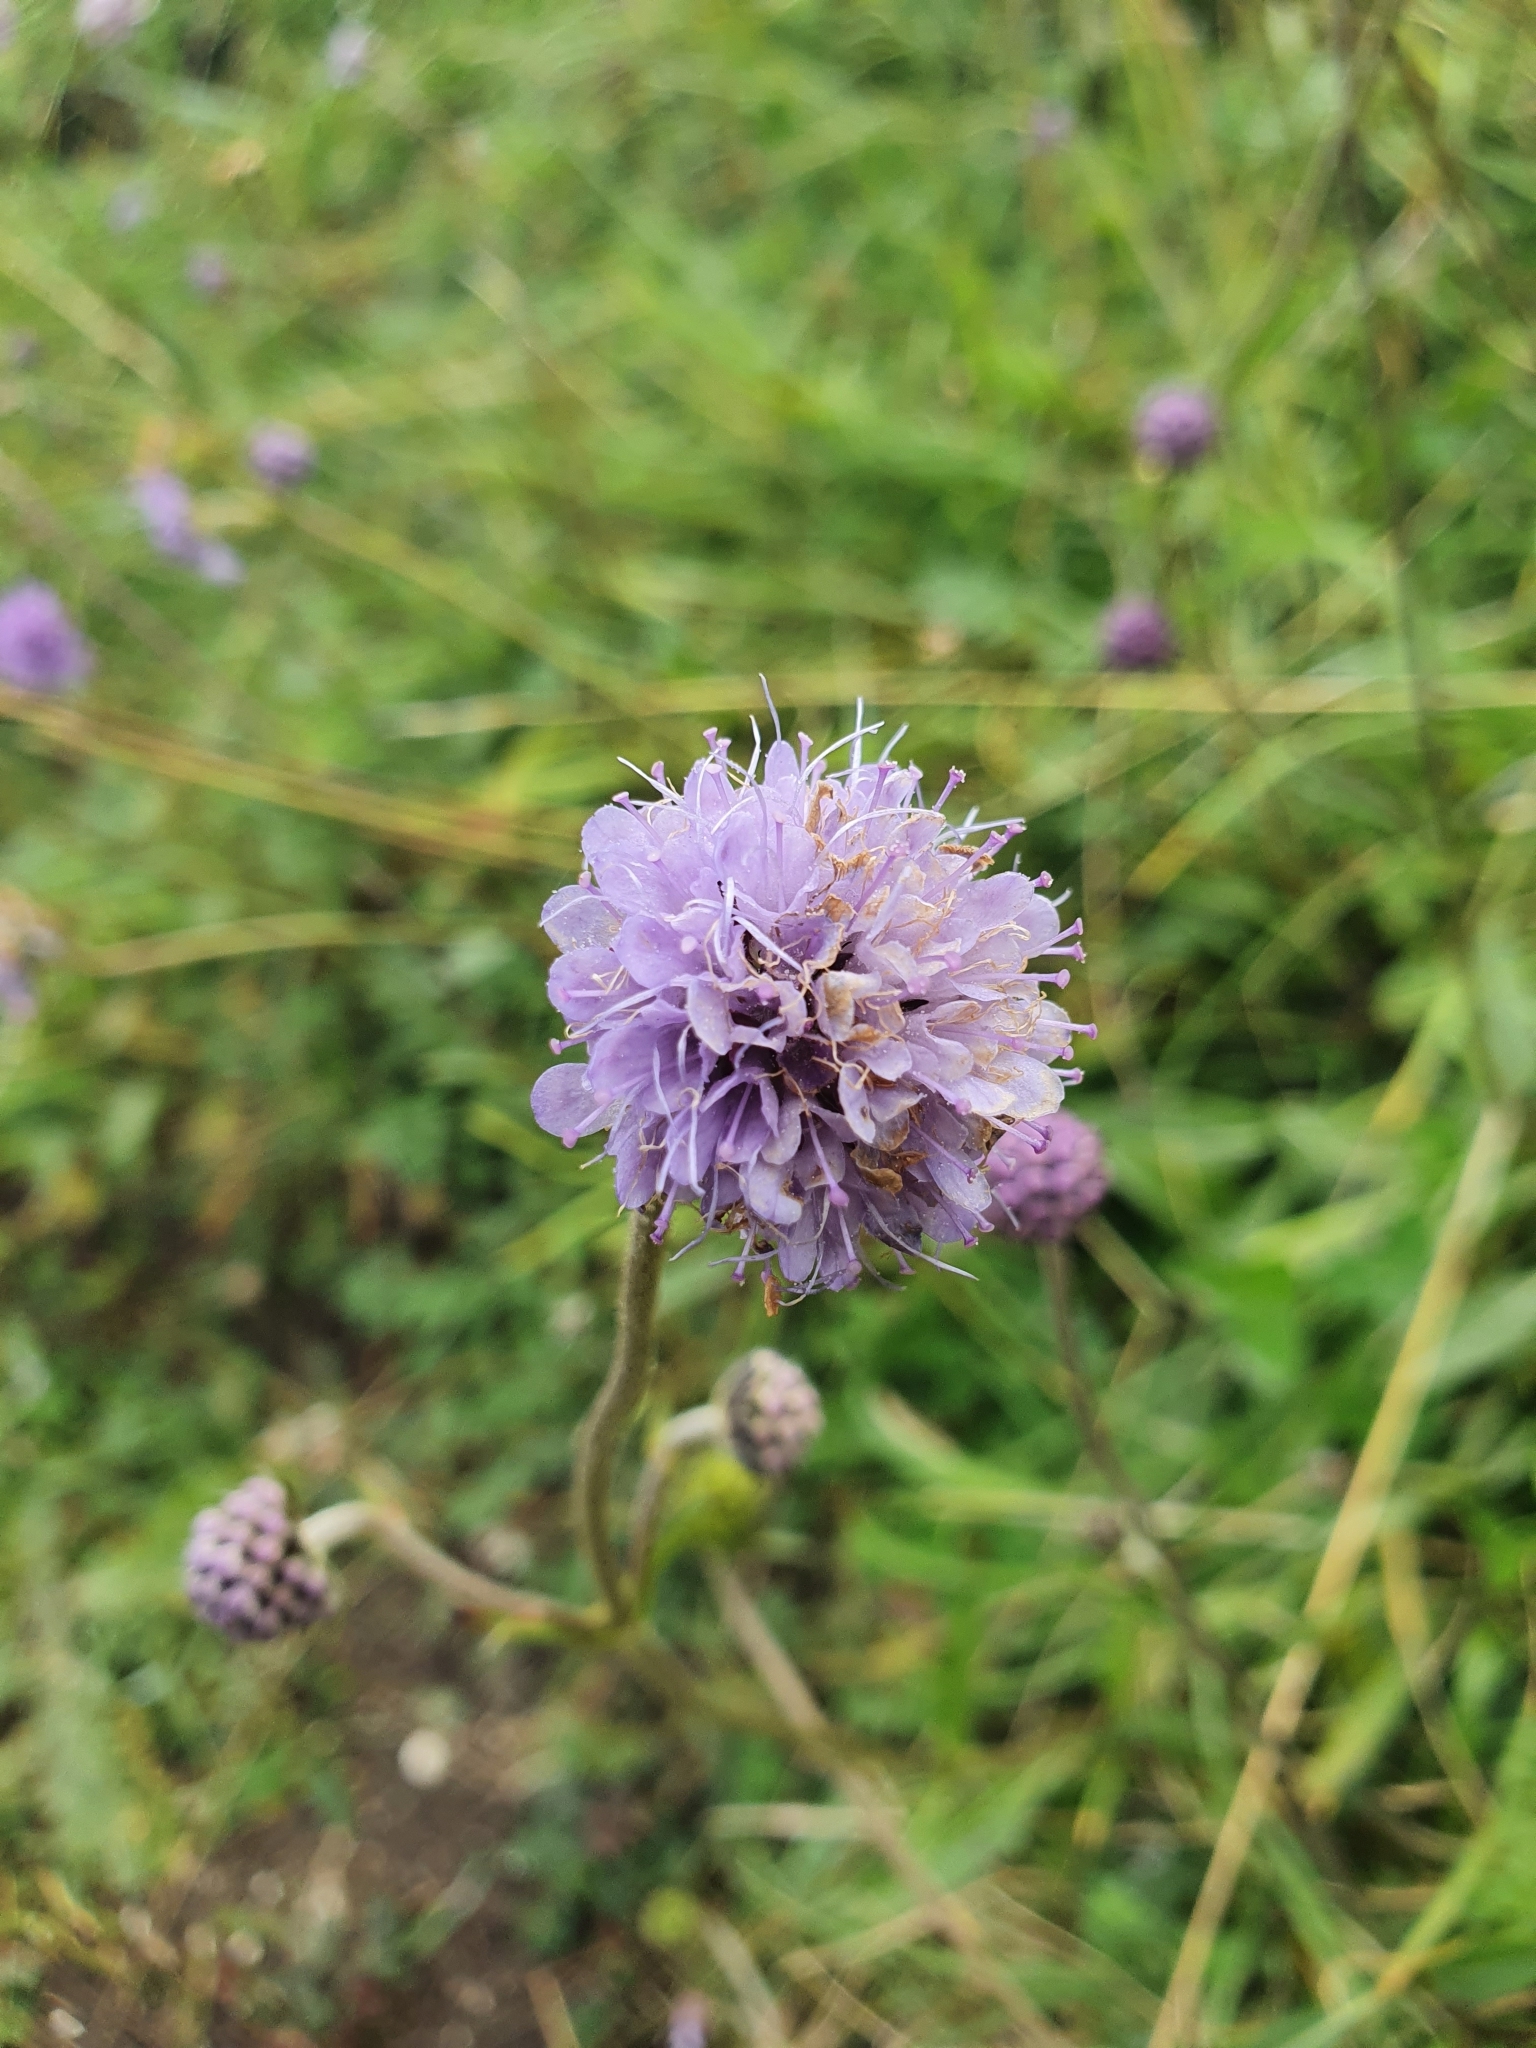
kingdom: Plantae
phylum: Tracheophyta
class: Magnoliopsida
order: Dipsacales
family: Caprifoliaceae
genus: Succisa
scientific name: Succisa pratensis
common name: Devil's-bit
